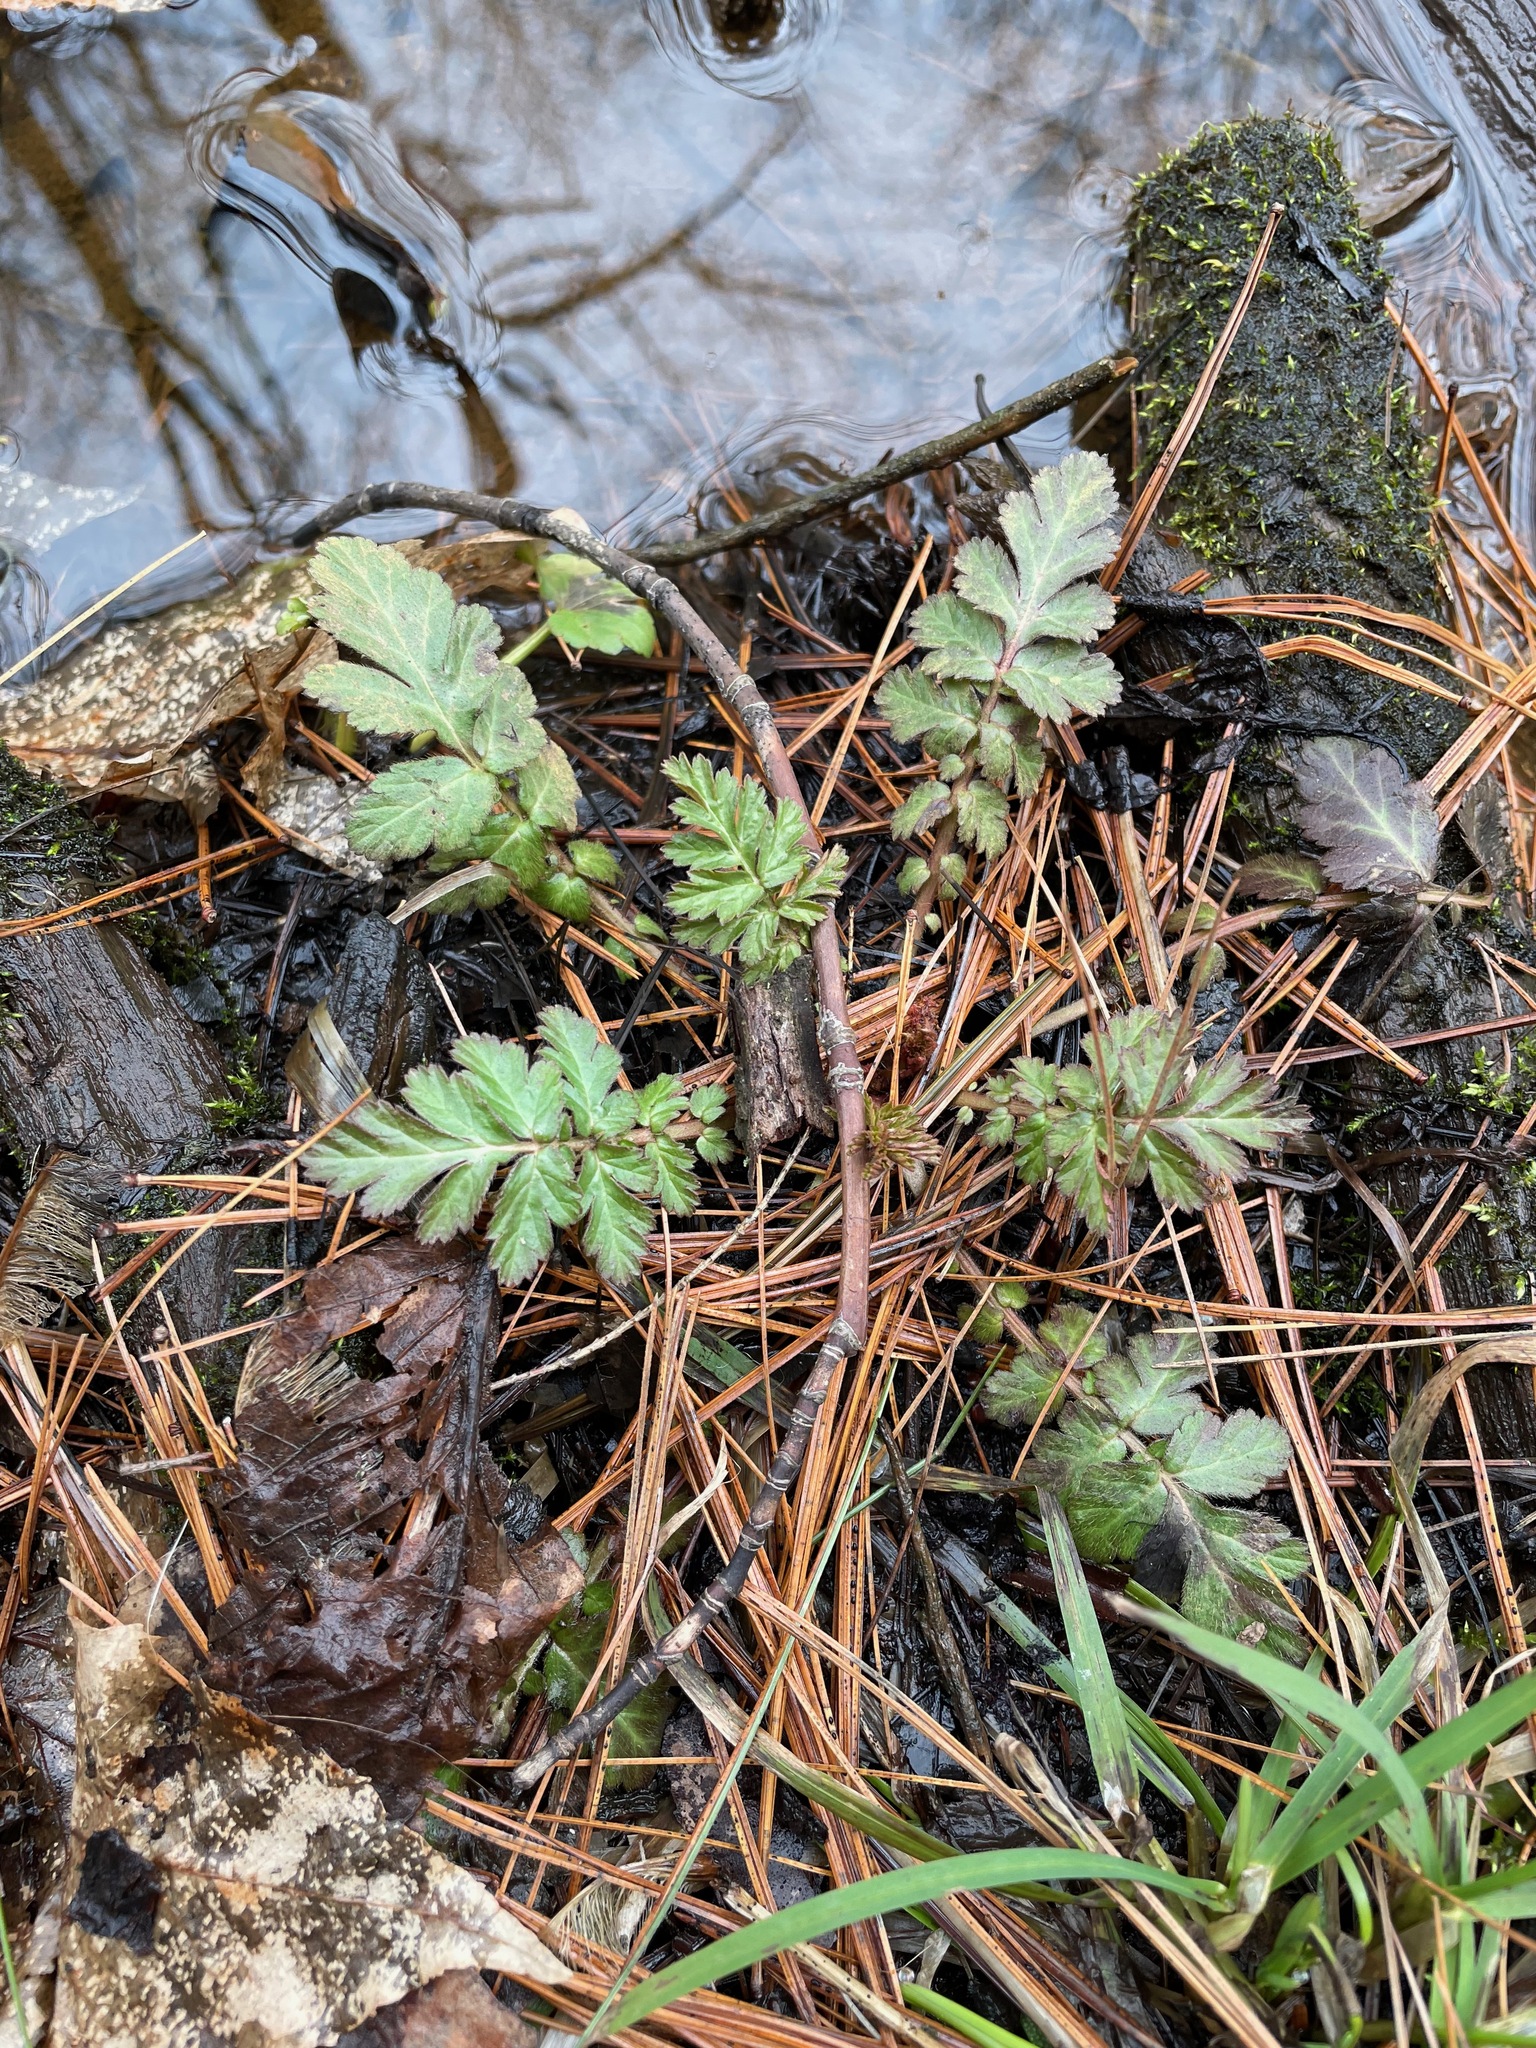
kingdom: Plantae
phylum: Tracheophyta
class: Magnoliopsida
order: Rosales
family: Rosaceae
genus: Geum
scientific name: Geum canadense
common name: White avens
